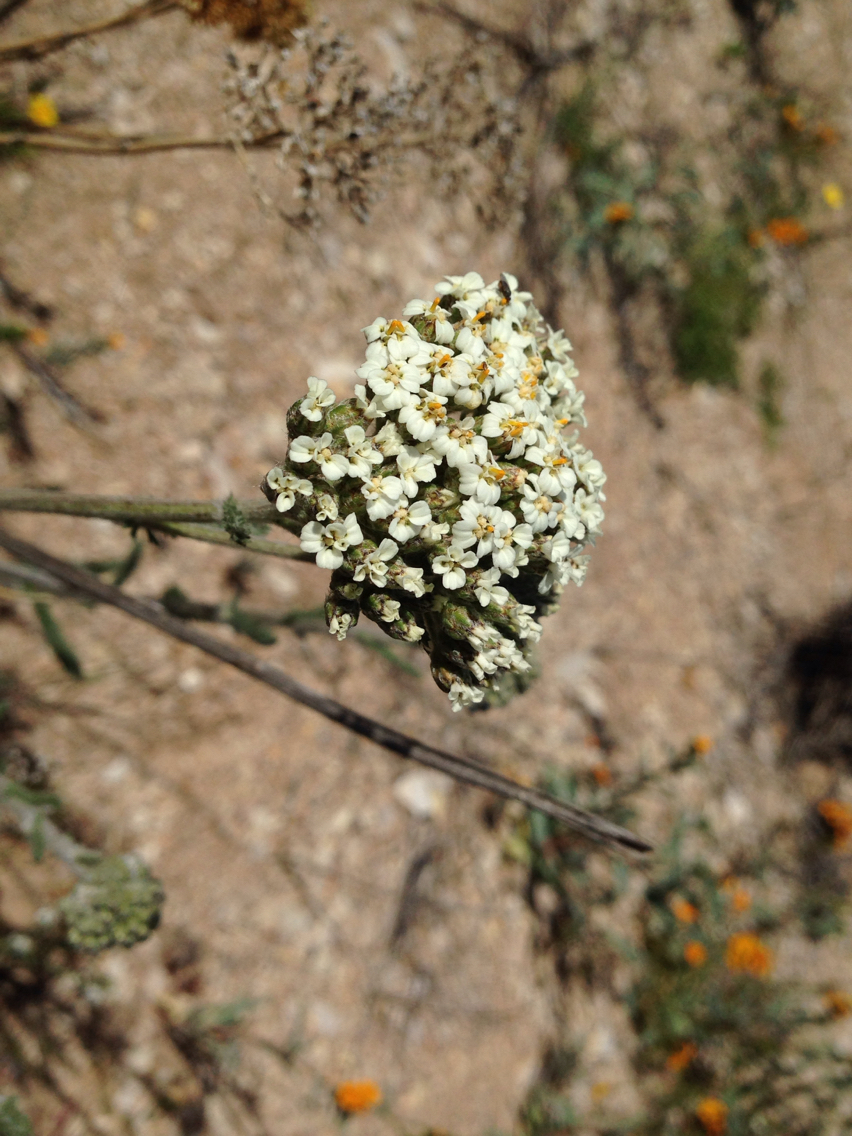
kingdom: Plantae
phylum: Tracheophyta
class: Magnoliopsida
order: Asterales
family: Asteraceae
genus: Achillea
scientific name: Achillea millefolium
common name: Yarrow
